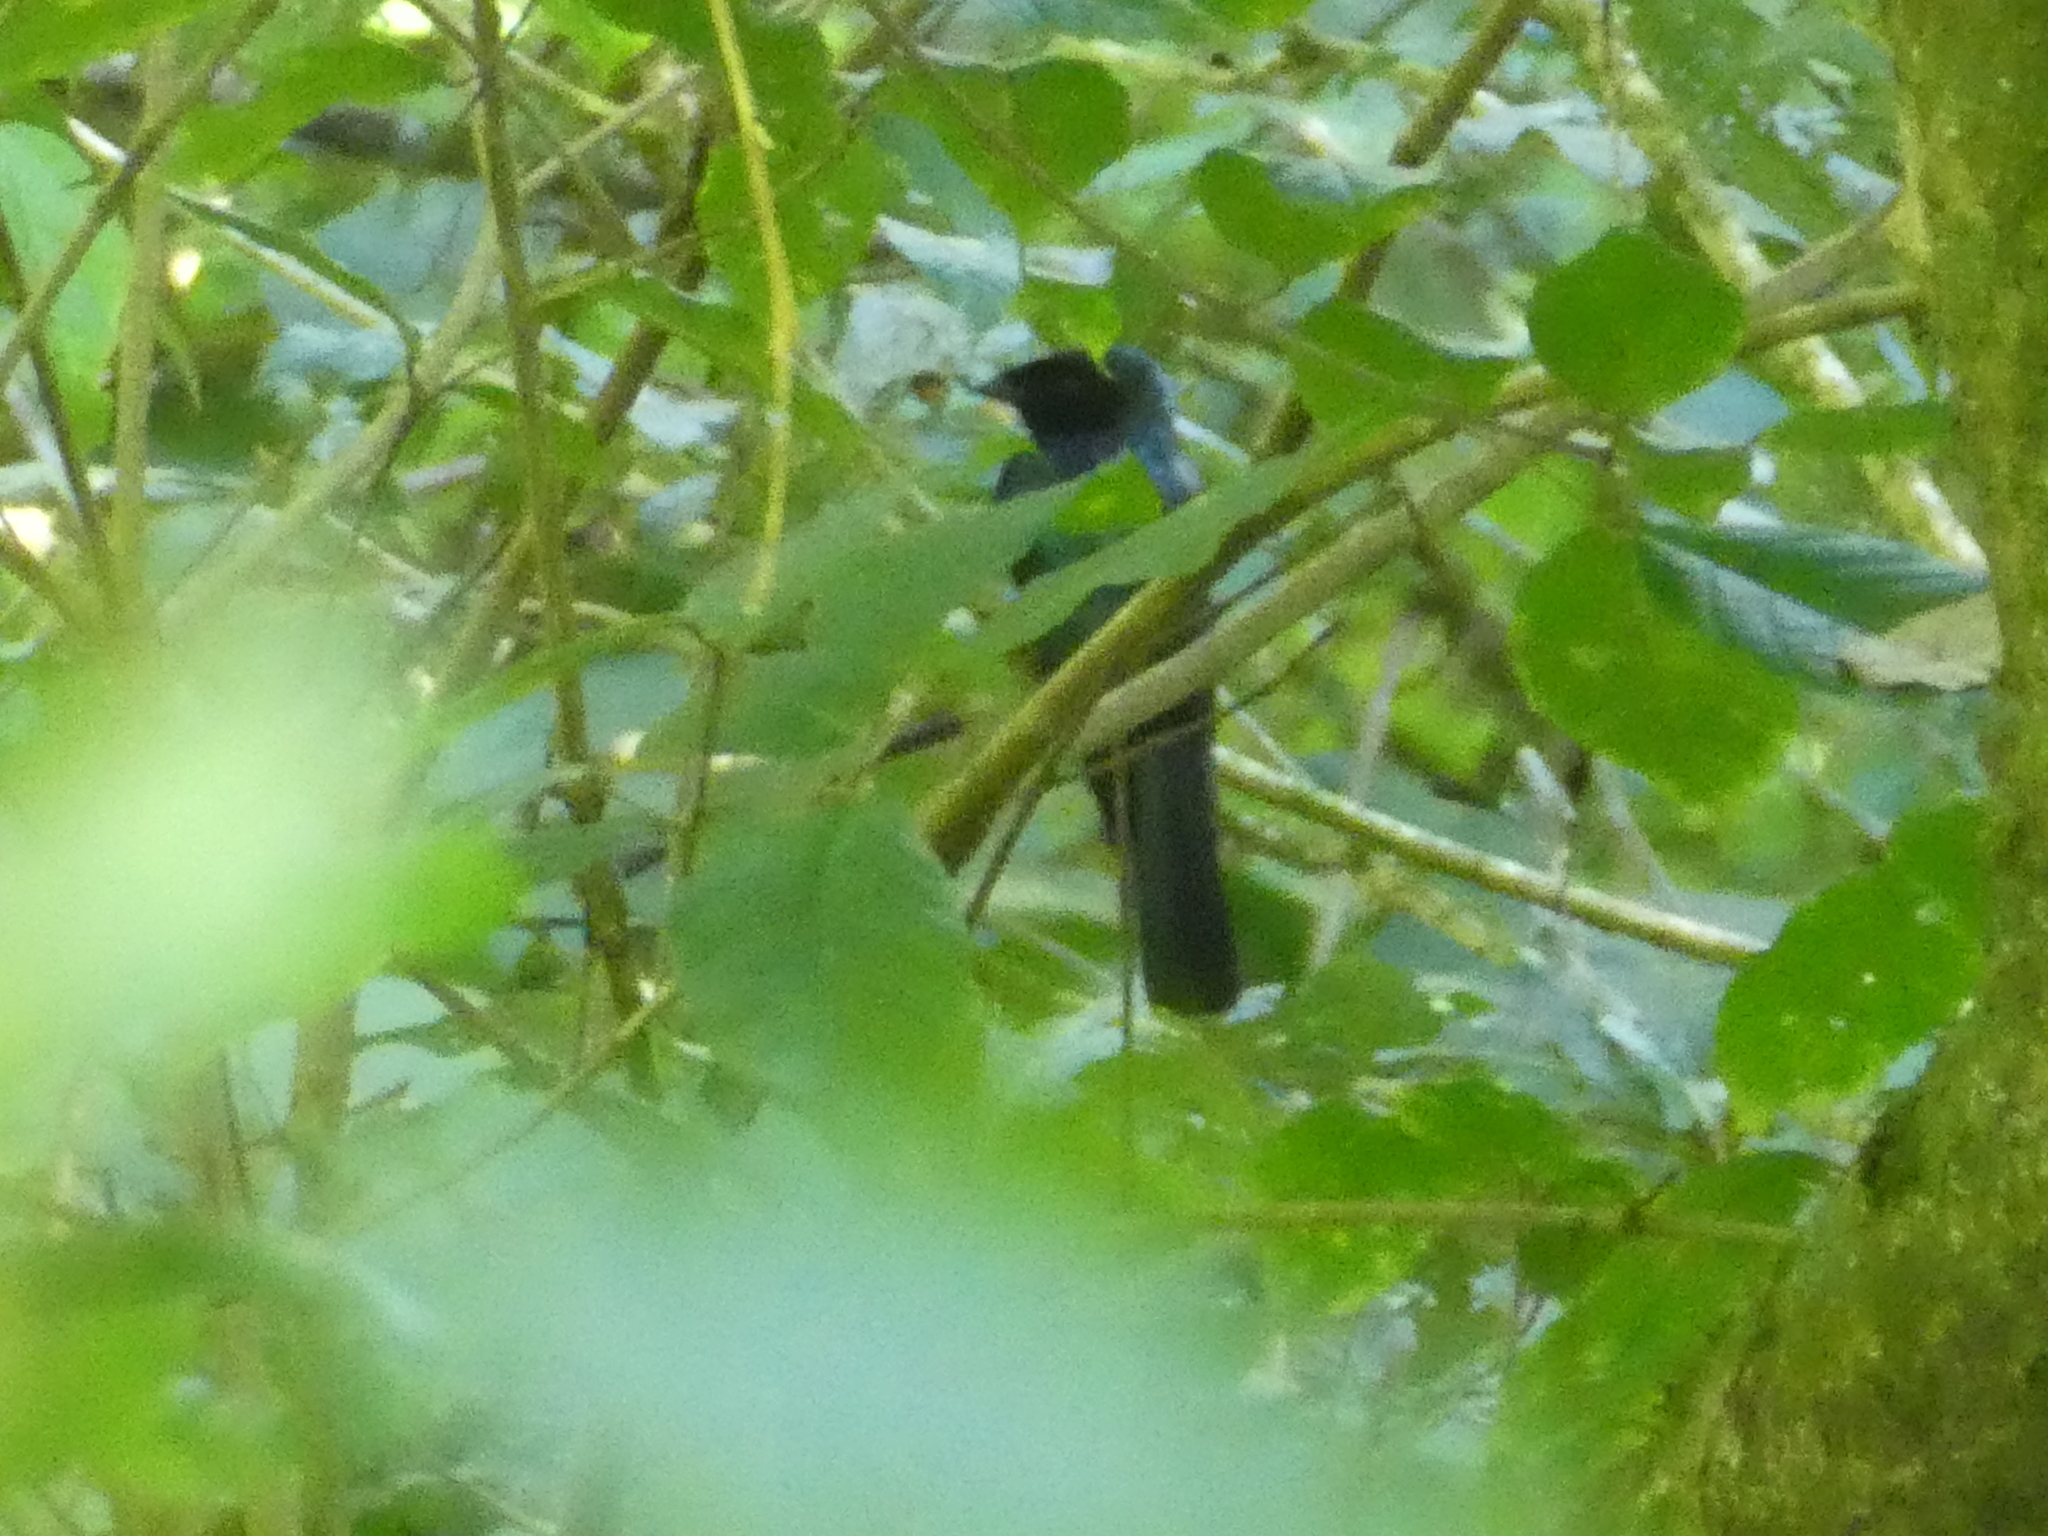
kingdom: Animalia
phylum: Chordata
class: Aves
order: Passeriformes
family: Dicruridae
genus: Dicrurus
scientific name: Dicrurus remifer
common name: Lesser racket-tailed drongo
